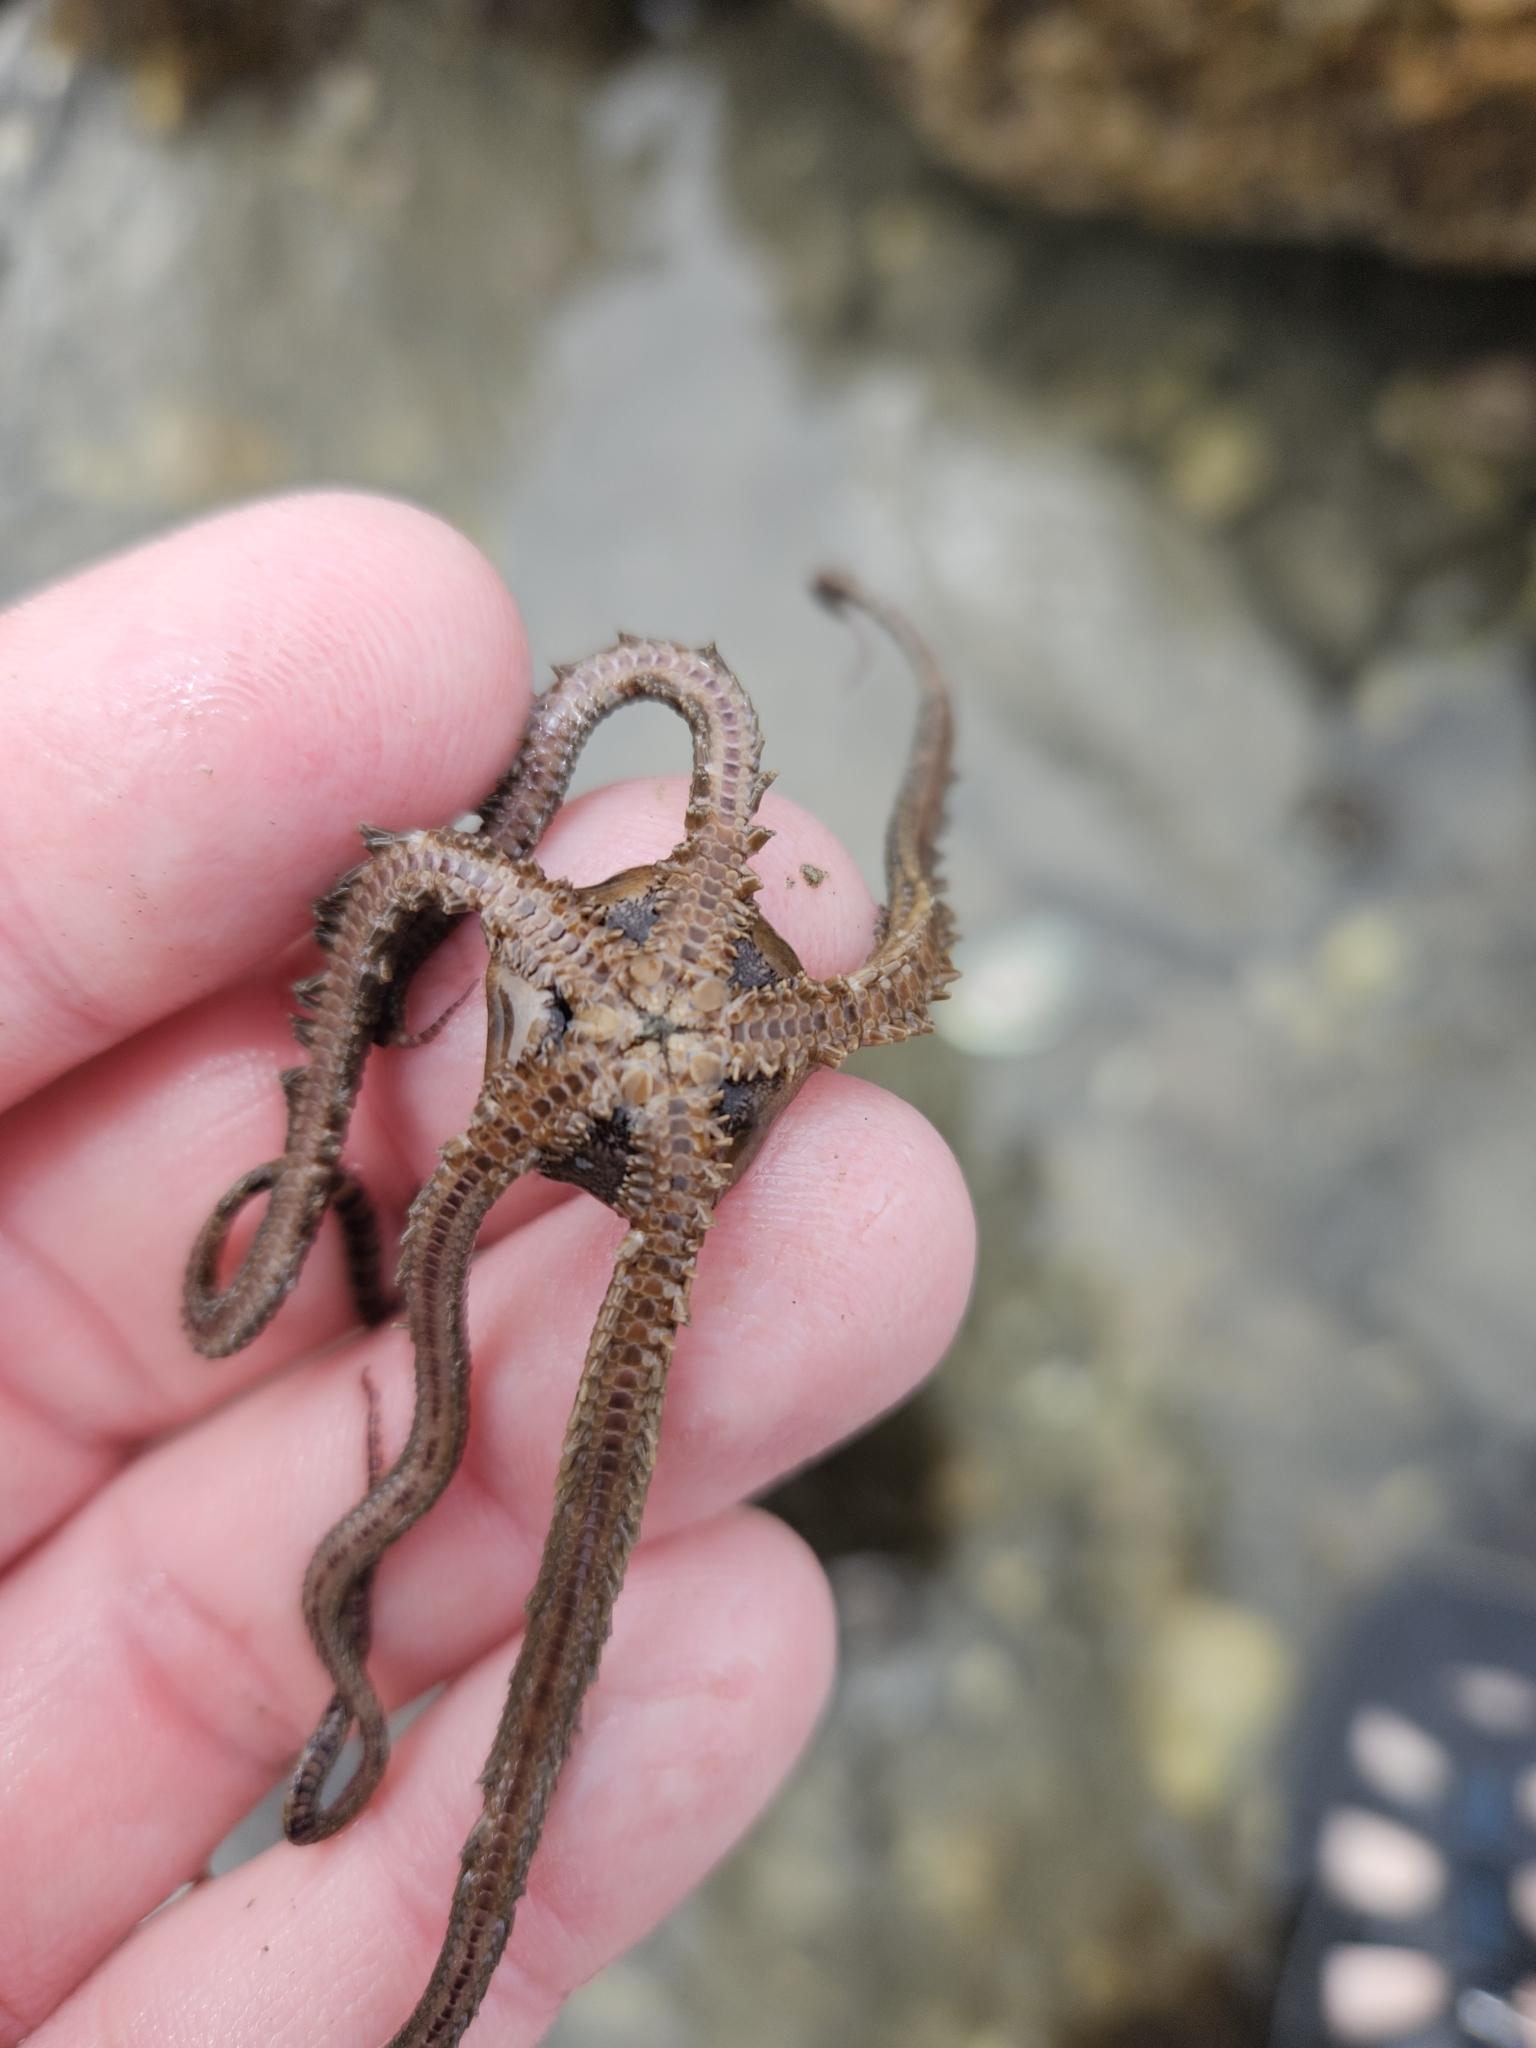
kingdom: Animalia
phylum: Echinodermata
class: Ophiuroidea
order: Amphilepidida
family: Ophionereididae
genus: Ophionereis
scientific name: Ophionereis fasciata
